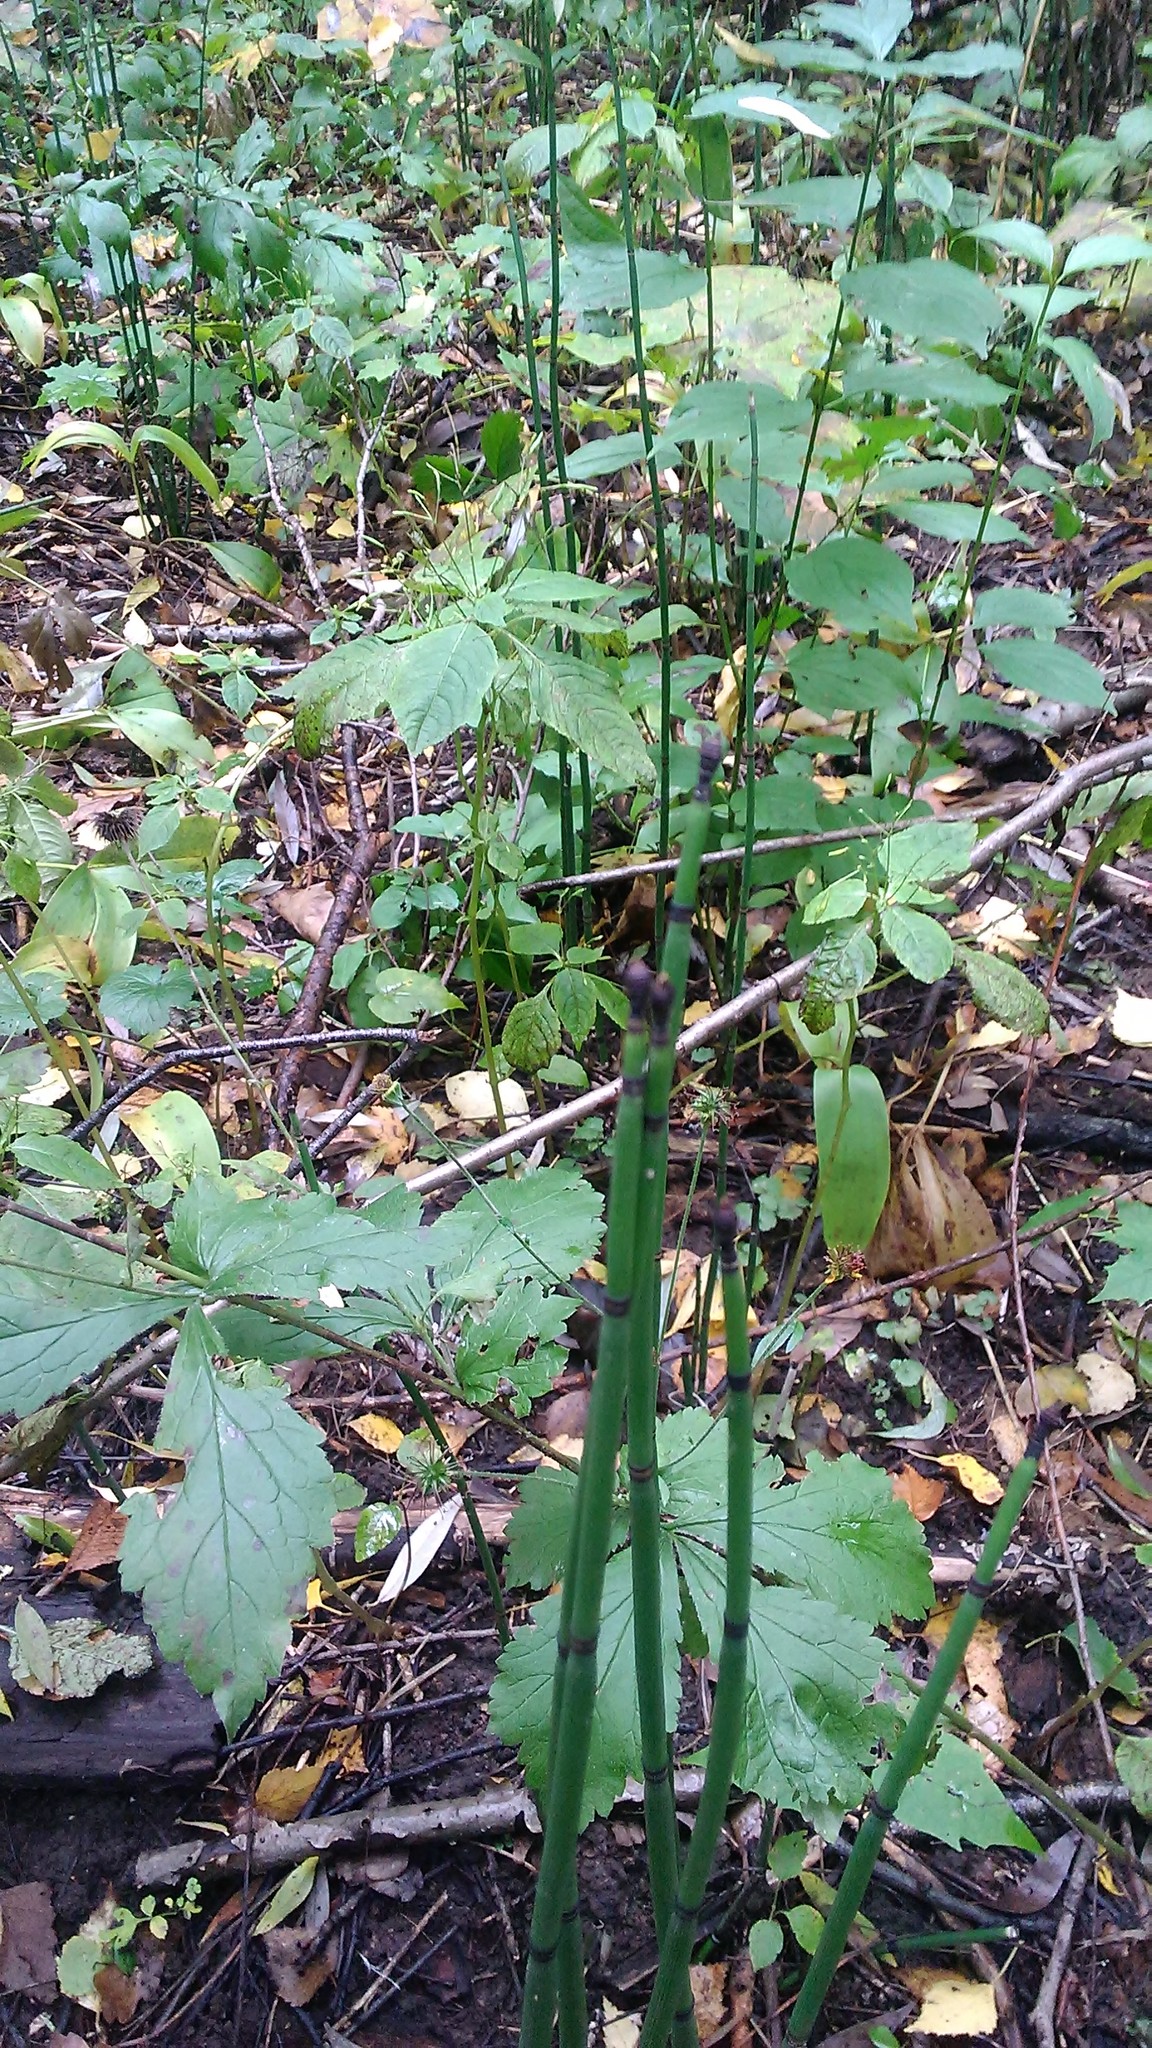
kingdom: Plantae
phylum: Tracheophyta
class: Polypodiopsida
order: Equisetales
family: Equisetaceae
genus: Equisetum
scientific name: Equisetum hyemale
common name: Rough horsetail
